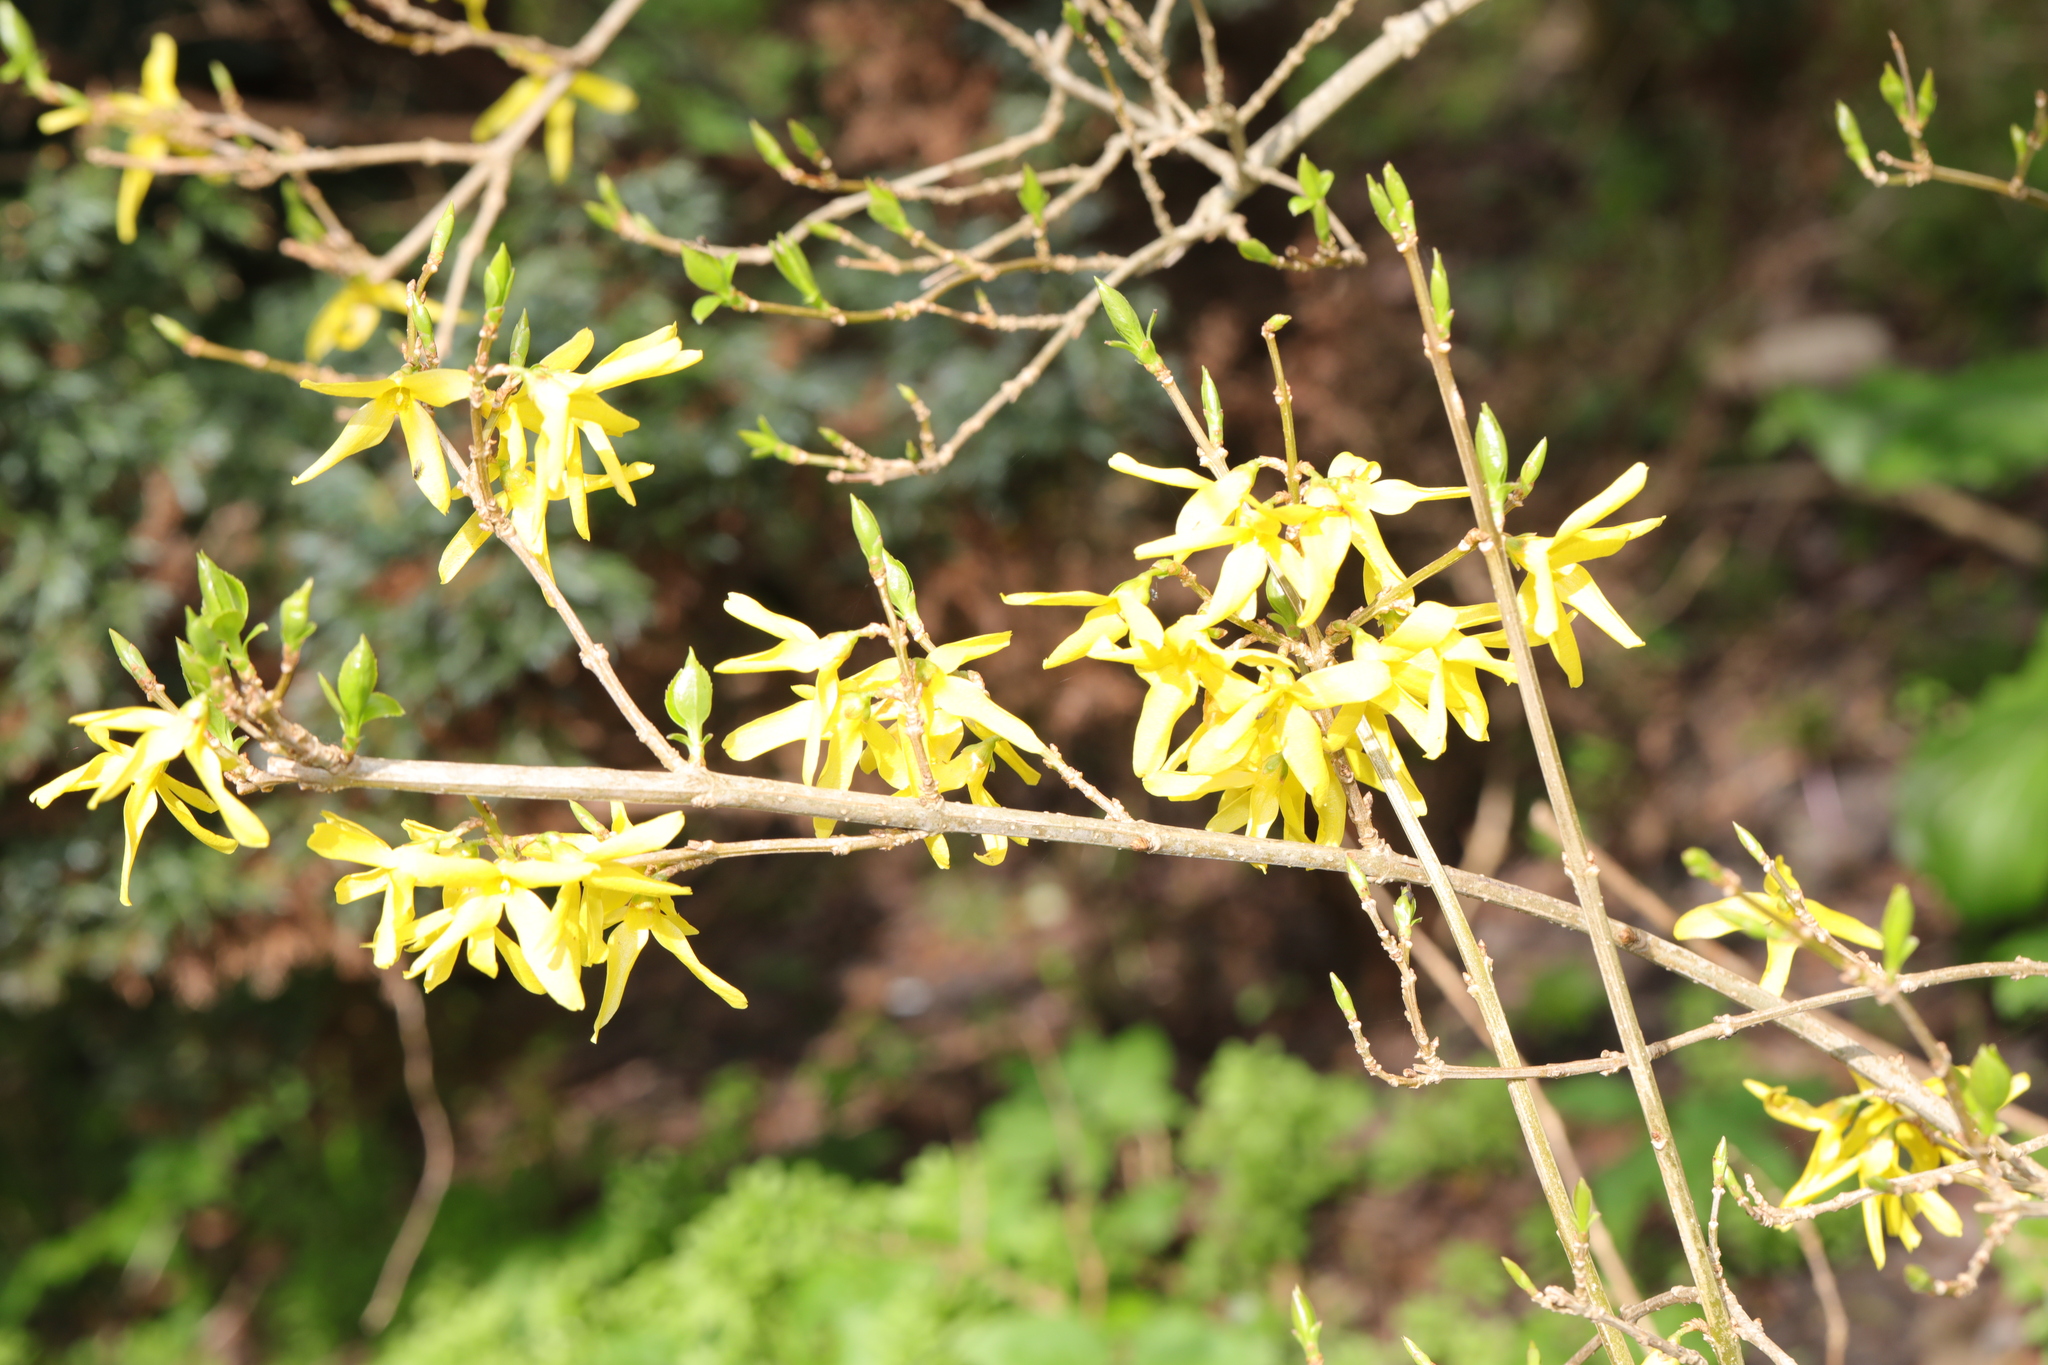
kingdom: Plantae
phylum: Tracheophyta
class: Magnoliopsida
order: Lamiales
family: Oleaceae
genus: Forsythia
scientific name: Forsythia intermedia
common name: Forsythia
